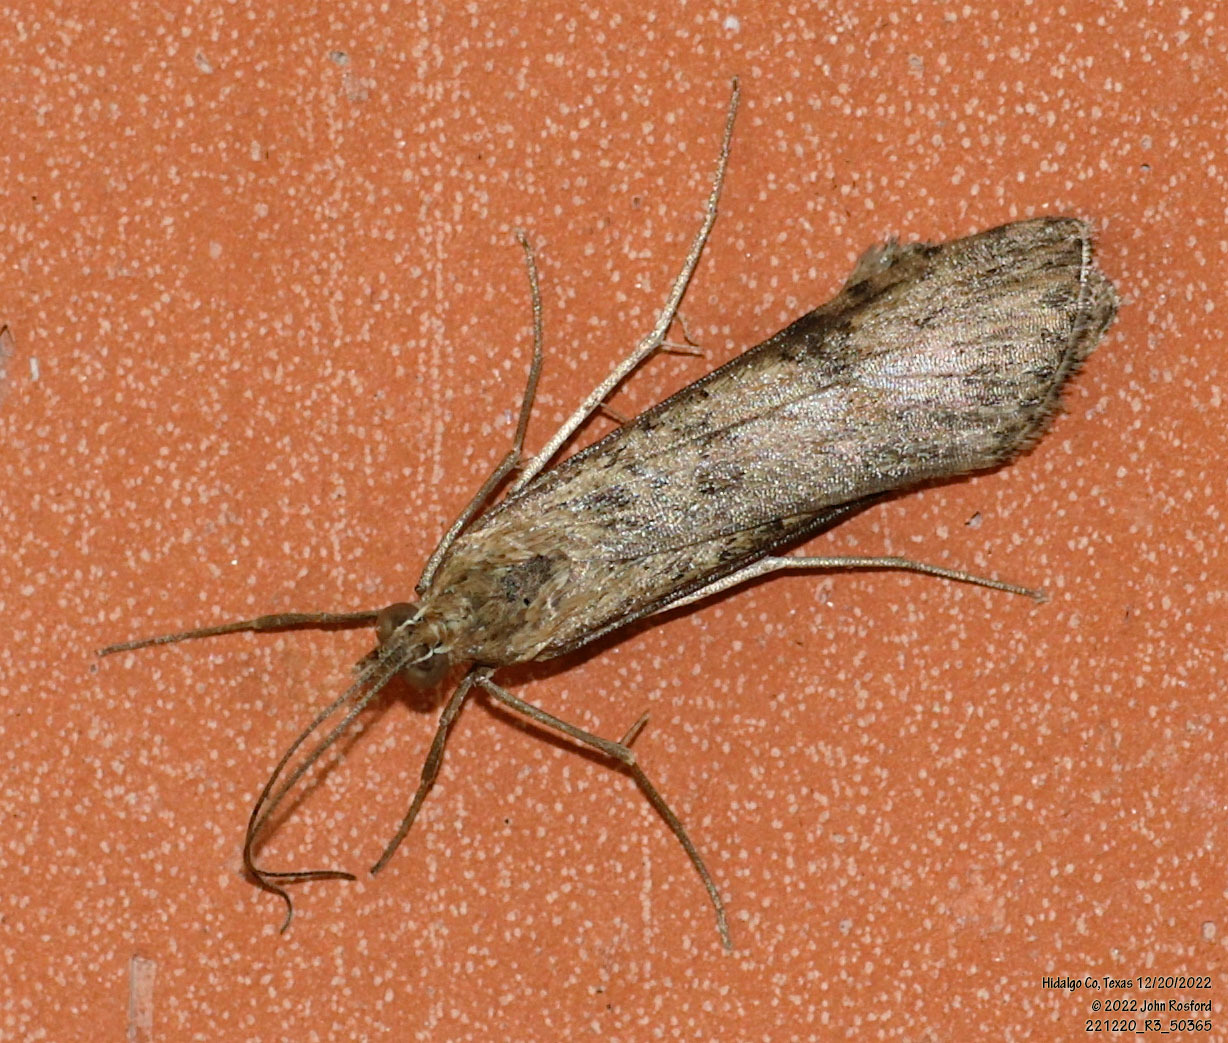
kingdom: Animalia
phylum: Arthropoda
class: Insecta
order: Lepidoptera
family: Crambidae
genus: Nomophila
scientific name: Nomophila nearctica
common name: American rush veneer
